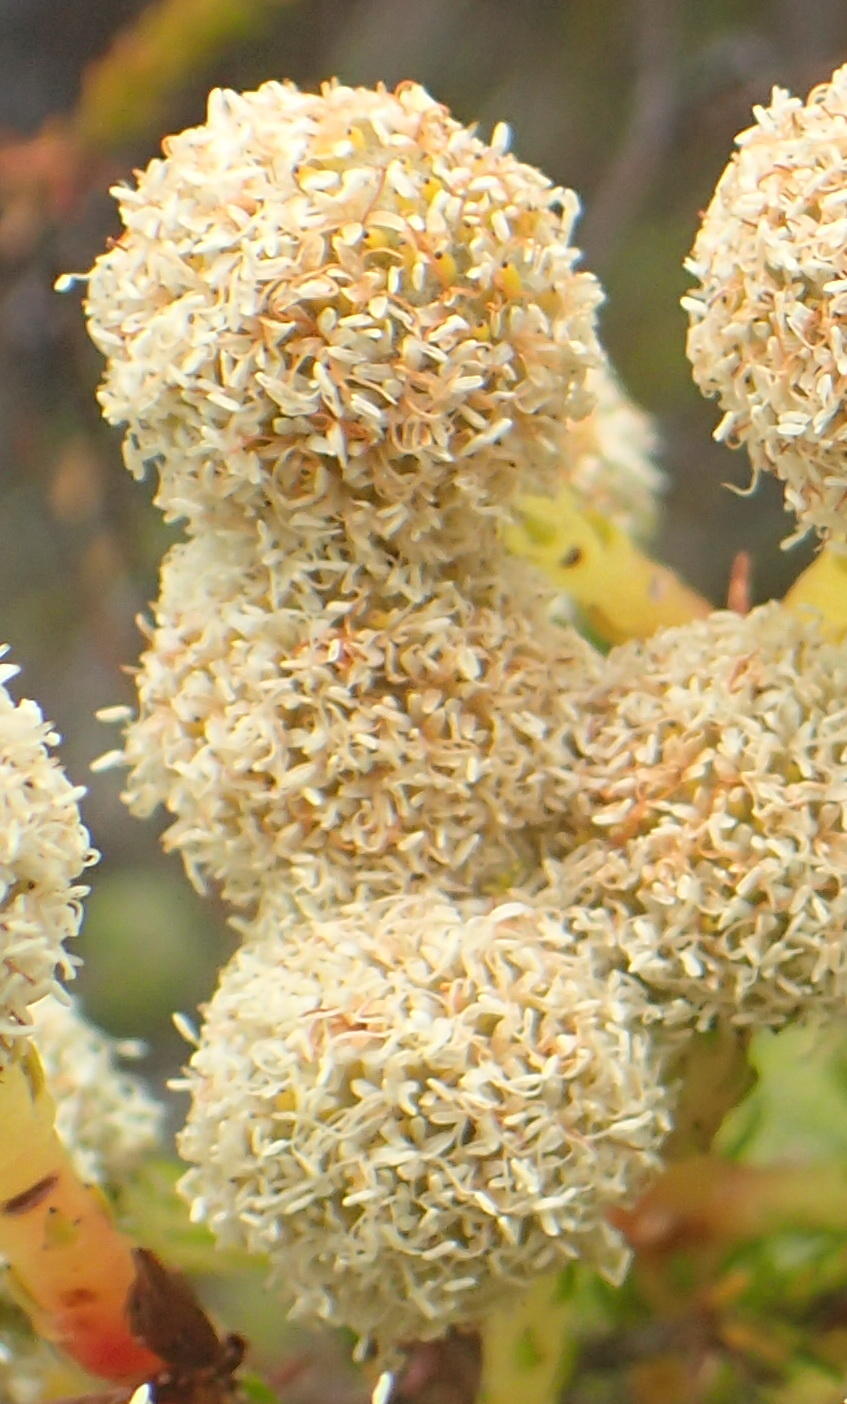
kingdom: Plantae
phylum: Tracheophyta
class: Magnoliopsida
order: Bruniales
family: Bruniaceae
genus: Berzelia
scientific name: Berzelia intermedia
